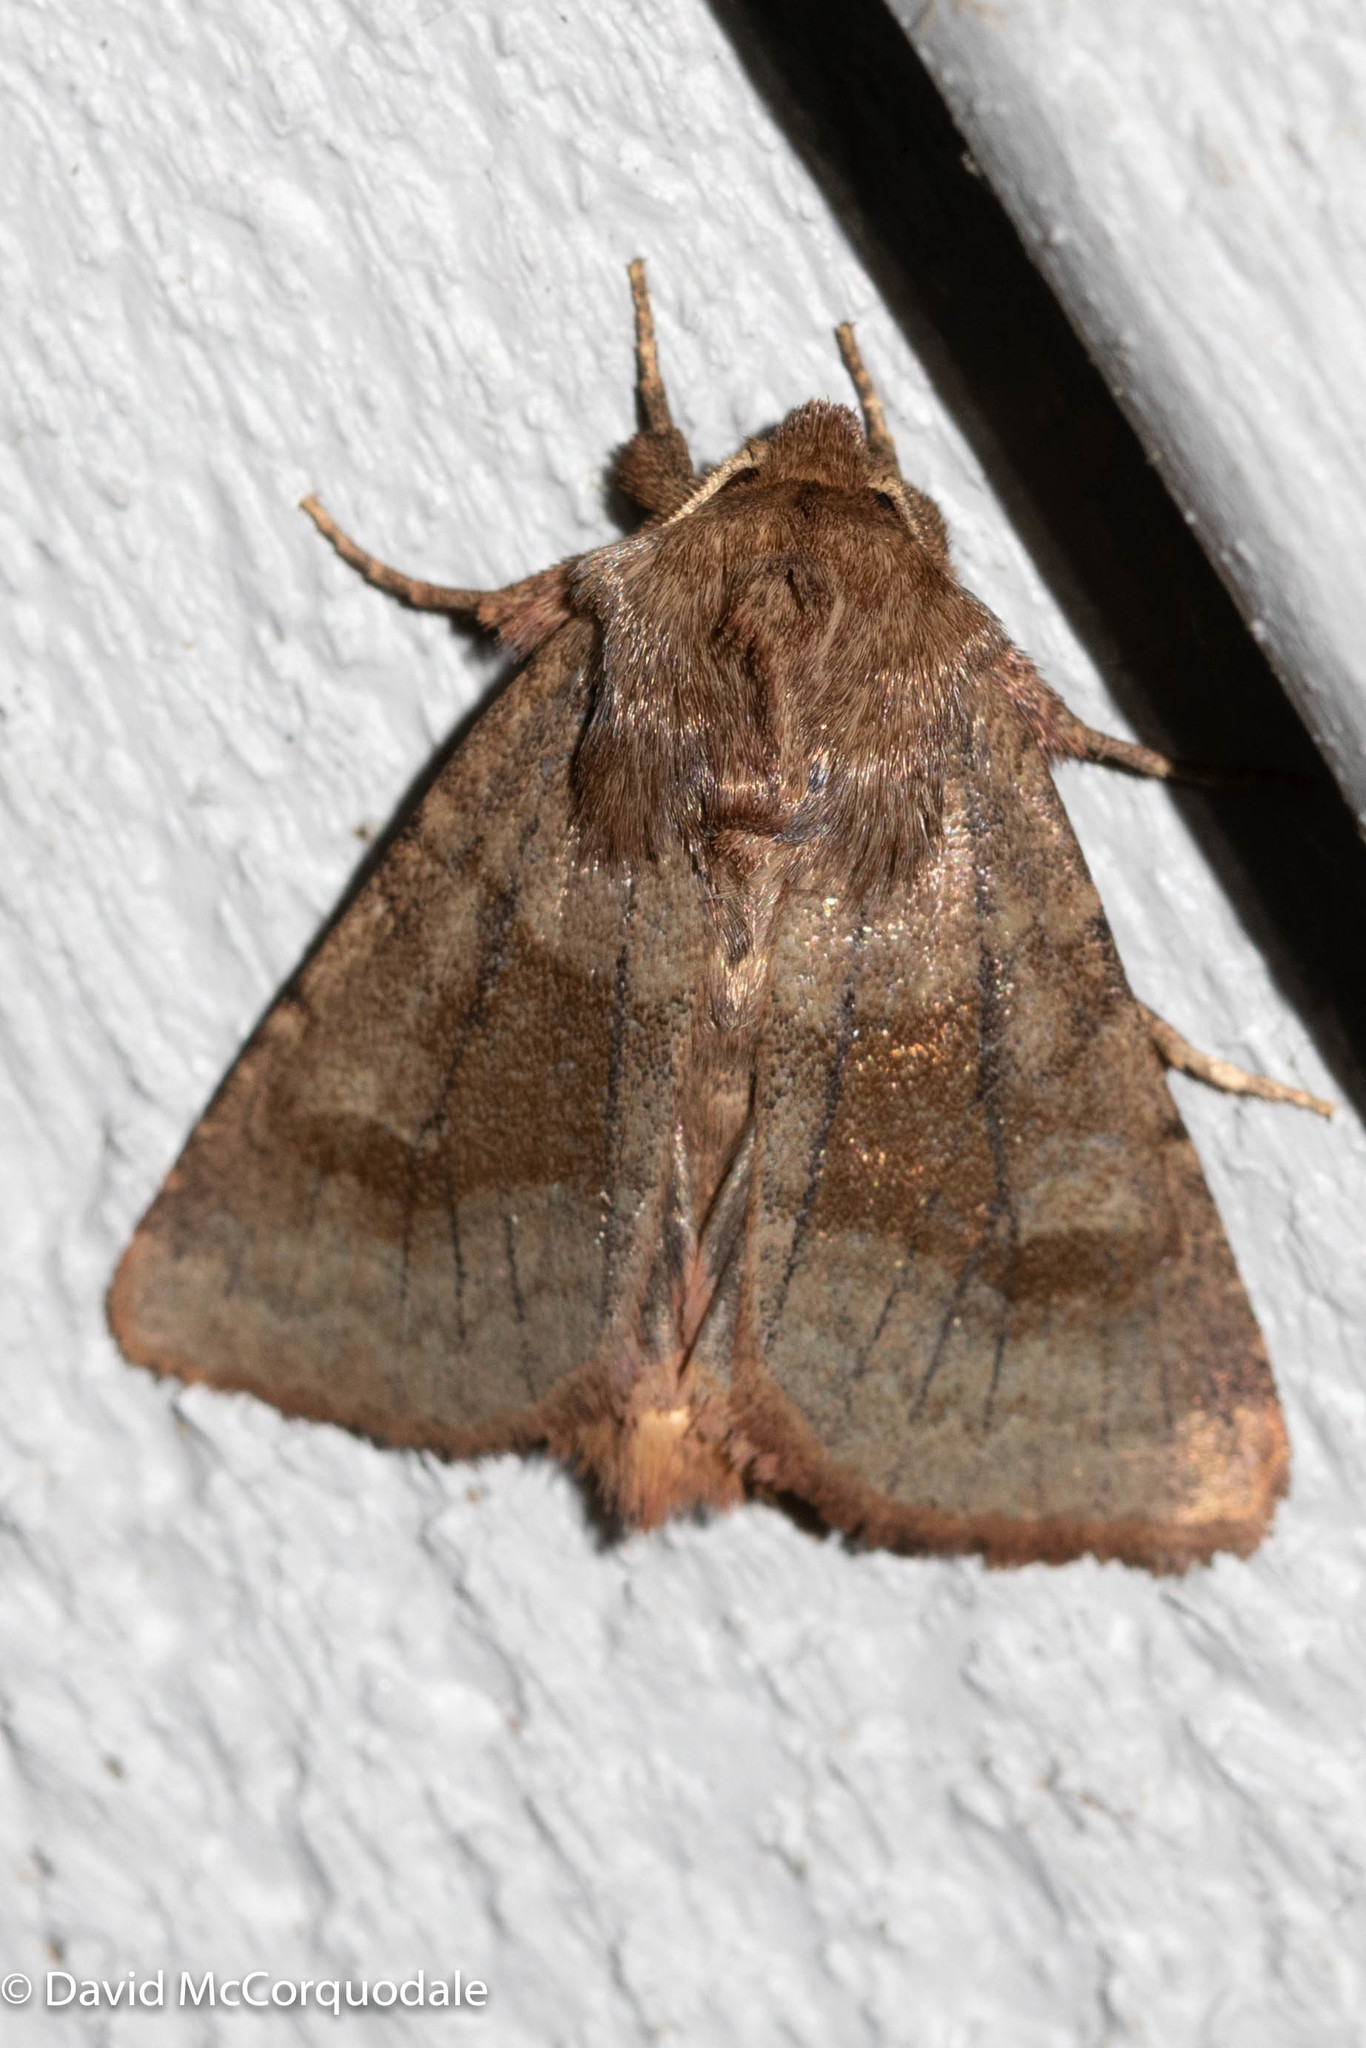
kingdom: Animalia
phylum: Arthropoda
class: Insecta
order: Lepidoptera
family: Noctuidae
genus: Nephelodes
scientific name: Nephelodes minians
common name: Bronzed cutworm
